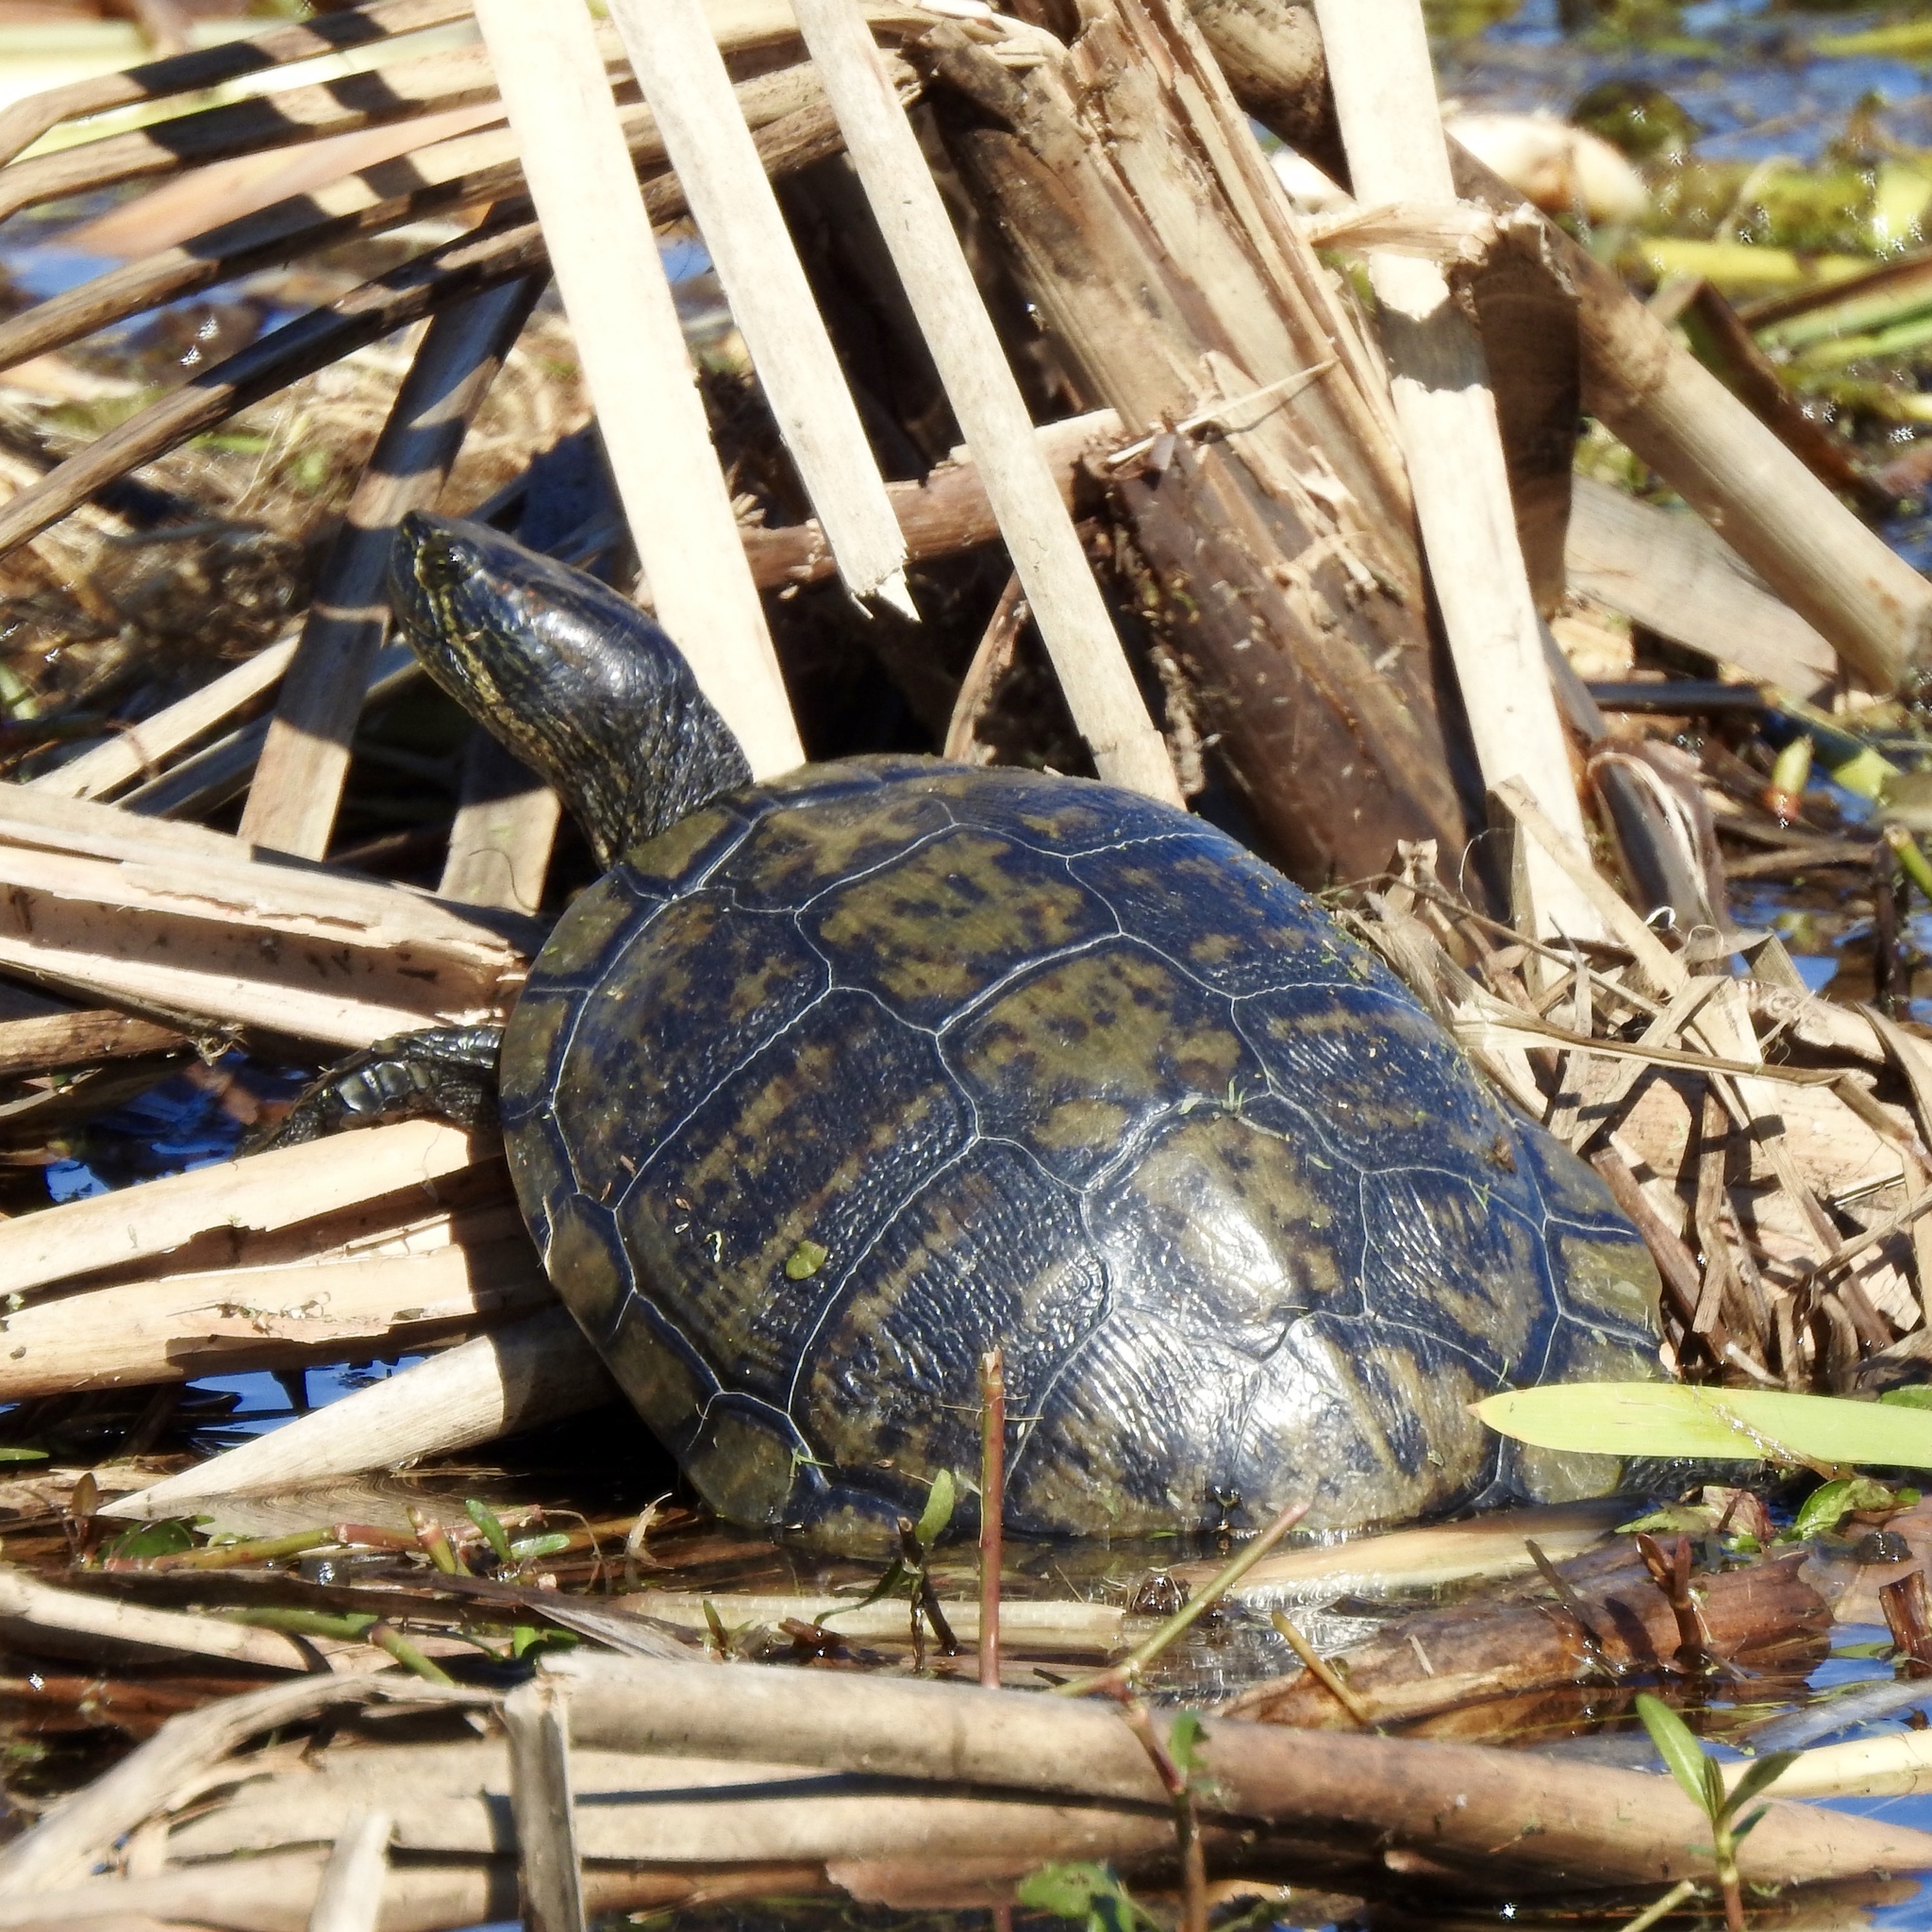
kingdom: Animalia
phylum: Chordata
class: Testudines
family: Emydidae
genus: Trachemys
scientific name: Trachemys scripta
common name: Slider
